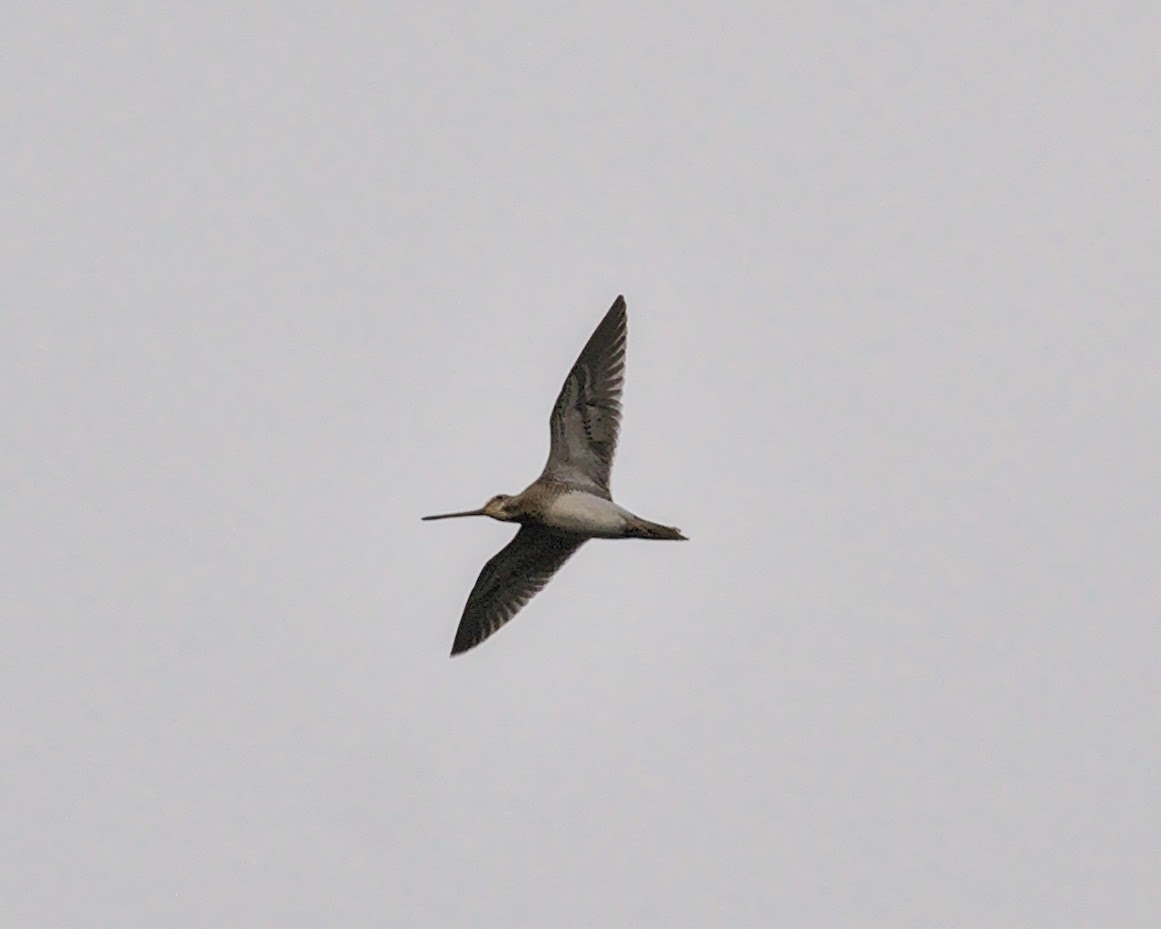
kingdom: Animalia
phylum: Chordata
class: Aves
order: Charadriiformes
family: Scolopacidae
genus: Gallinago
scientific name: Gallinago gallinago
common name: Common snipe
